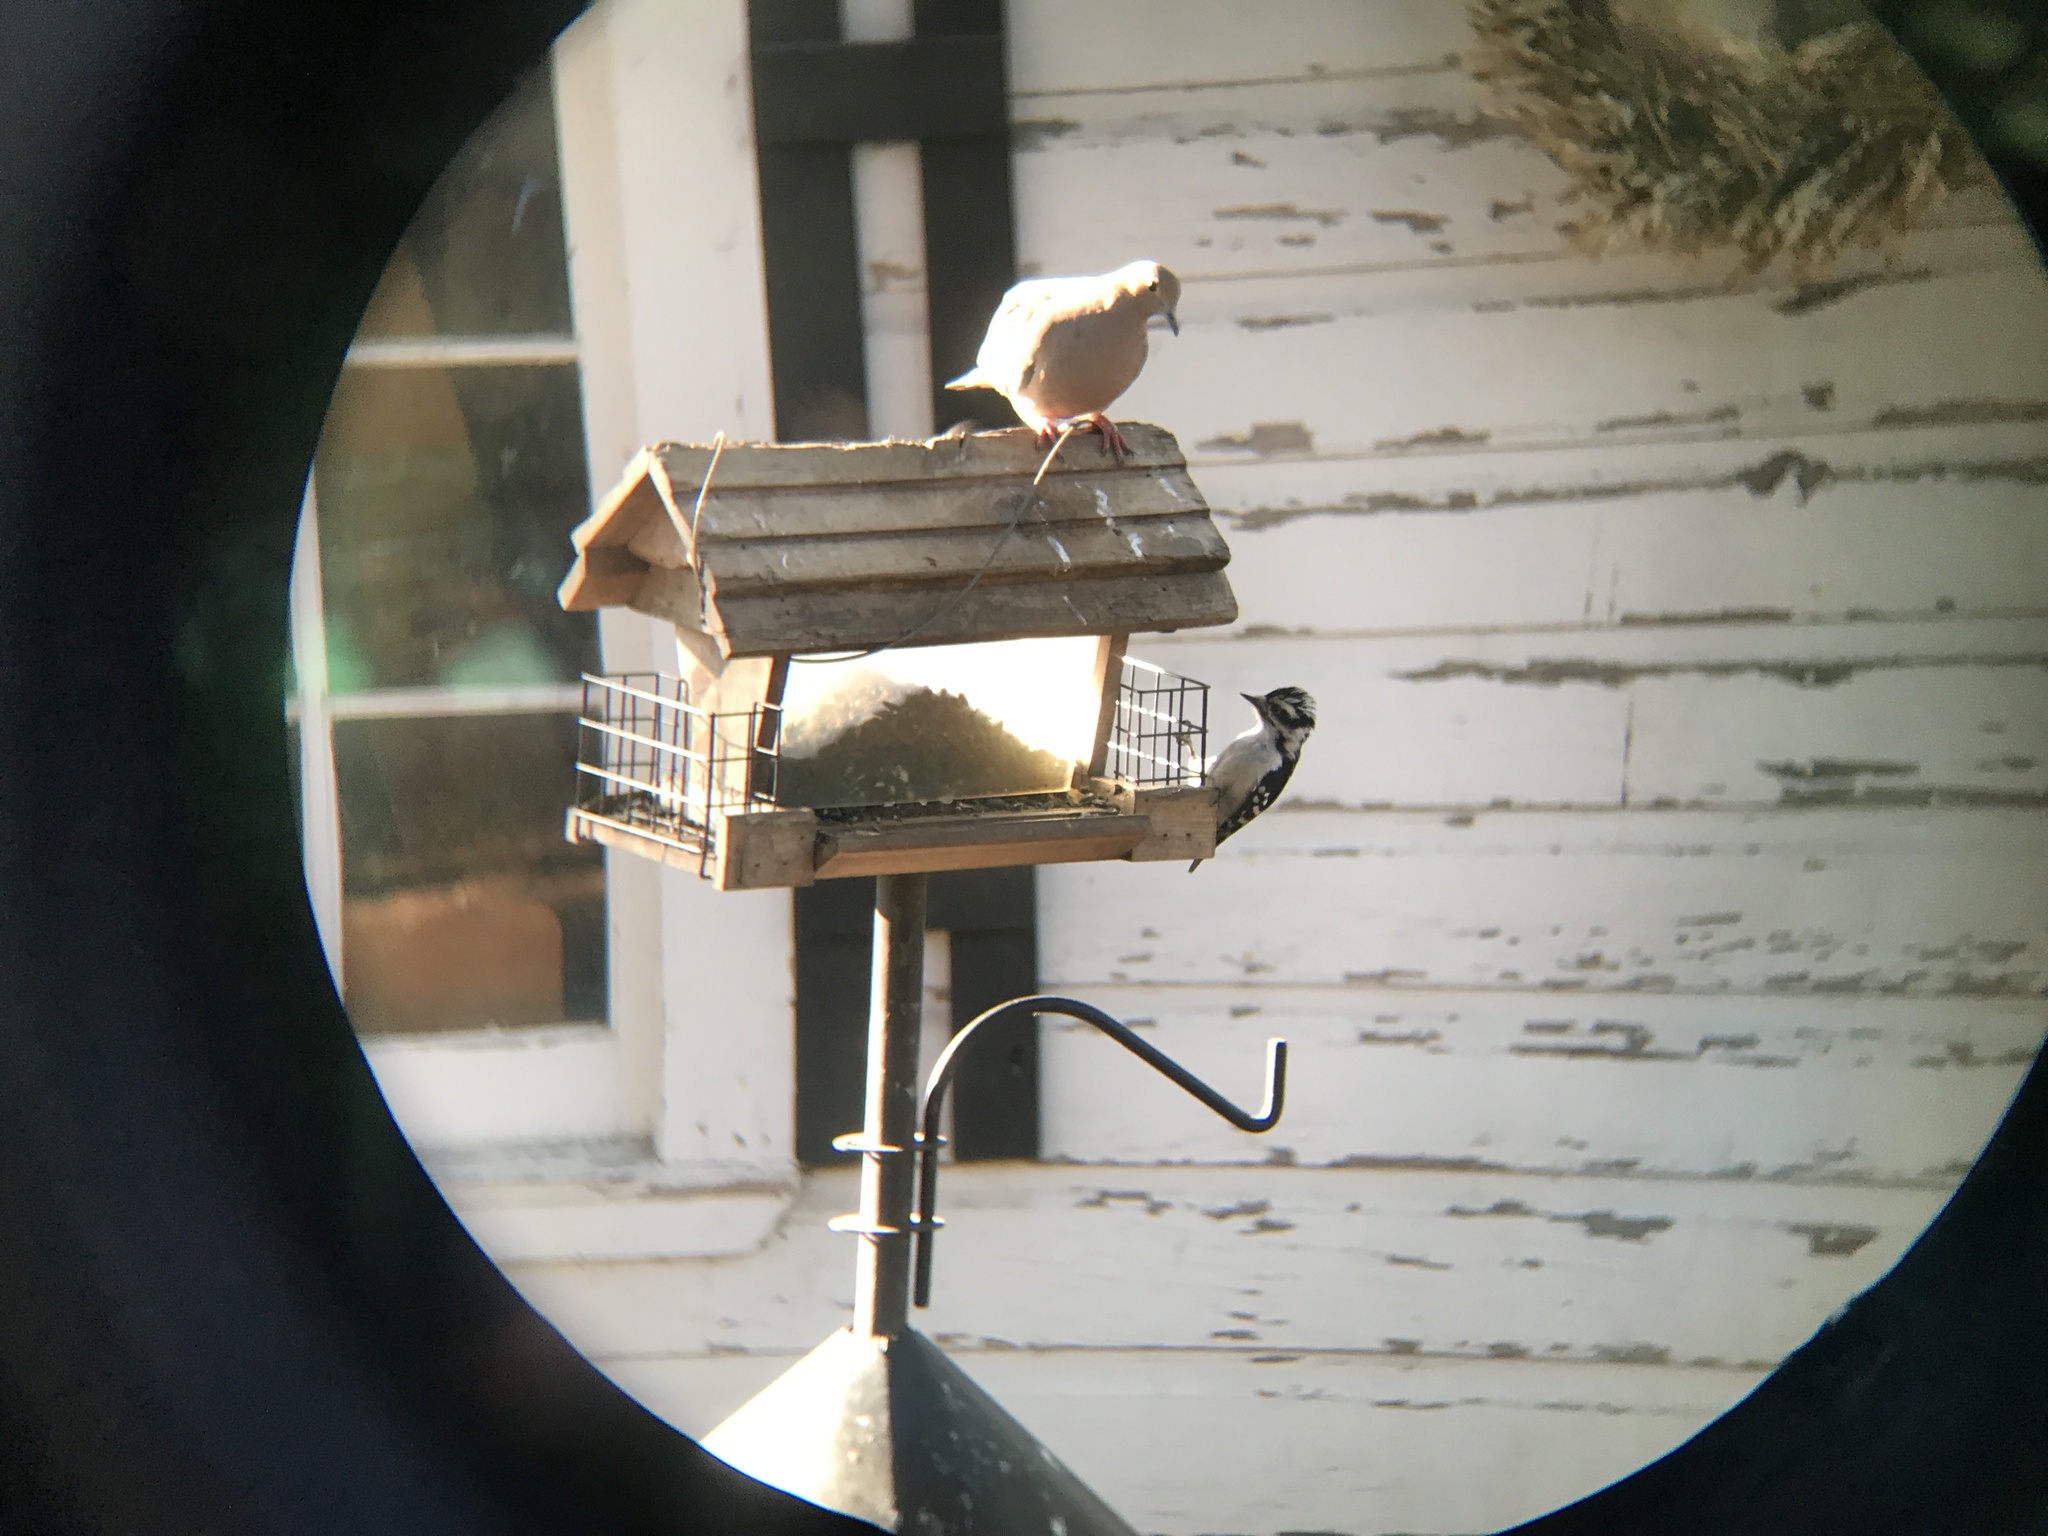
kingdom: Animalia
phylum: Chordata
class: Aves
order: Piciformes
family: Picidae
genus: Dryobates
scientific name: Dryobates pubescens
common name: Downy woodpecker
